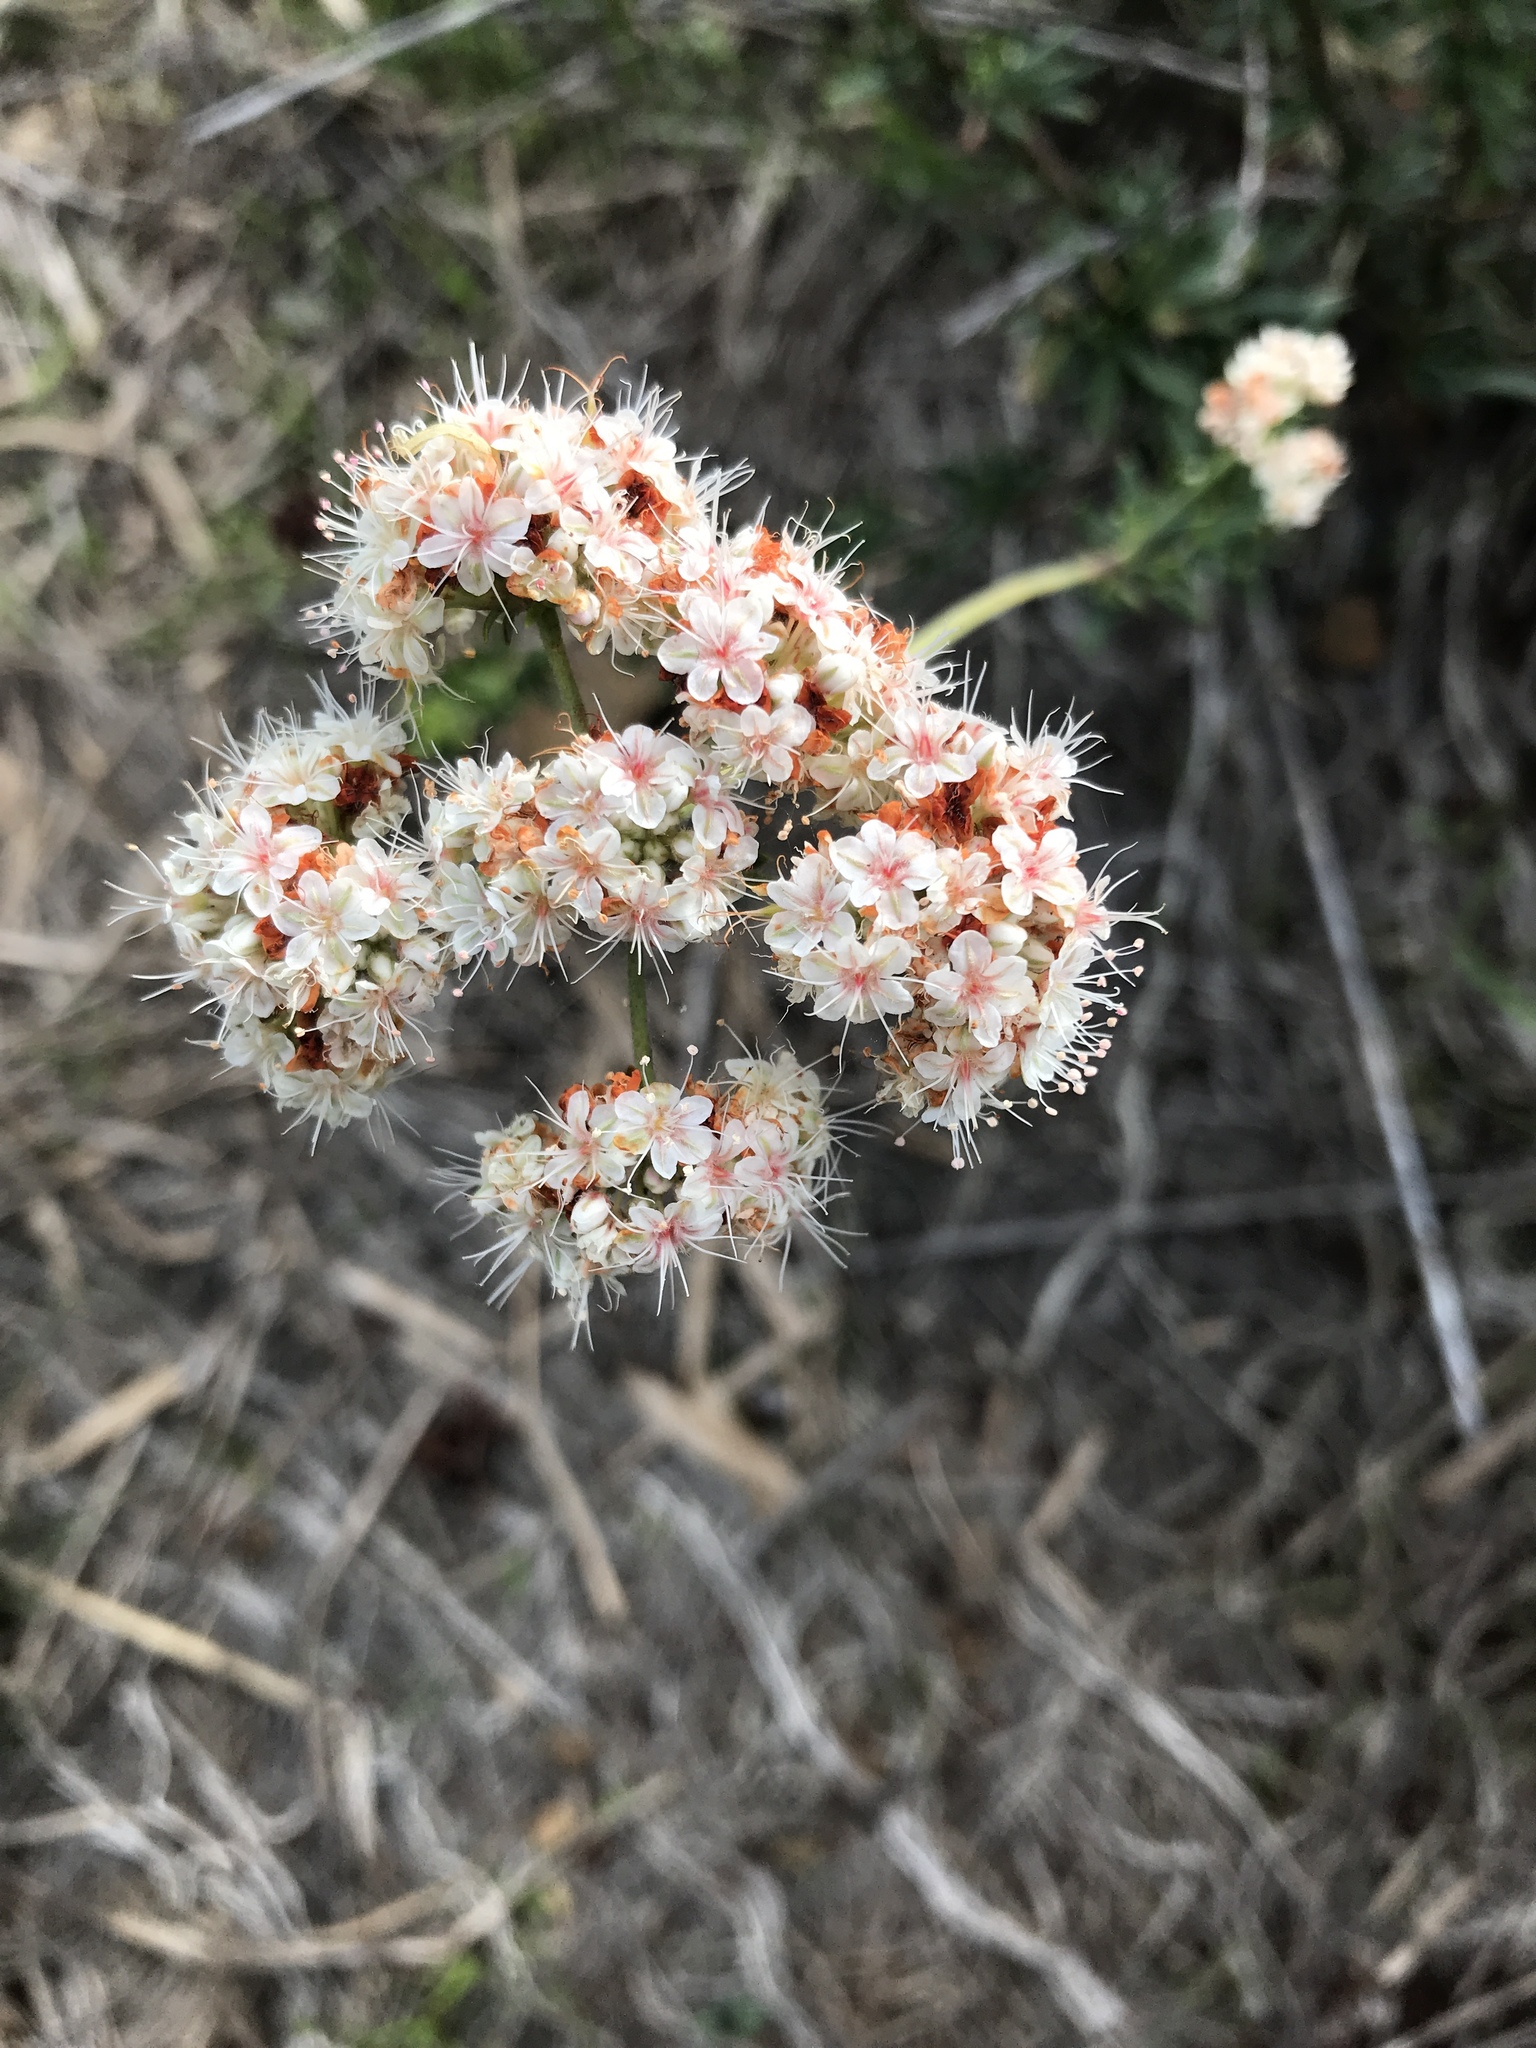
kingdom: Plantae
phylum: Tracheophyta
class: Magnoliopsida
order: Caryophyllales
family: Polygonaceae
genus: Eriogonum
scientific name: Eriogonum fasciculatum
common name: California wild buckwheat
